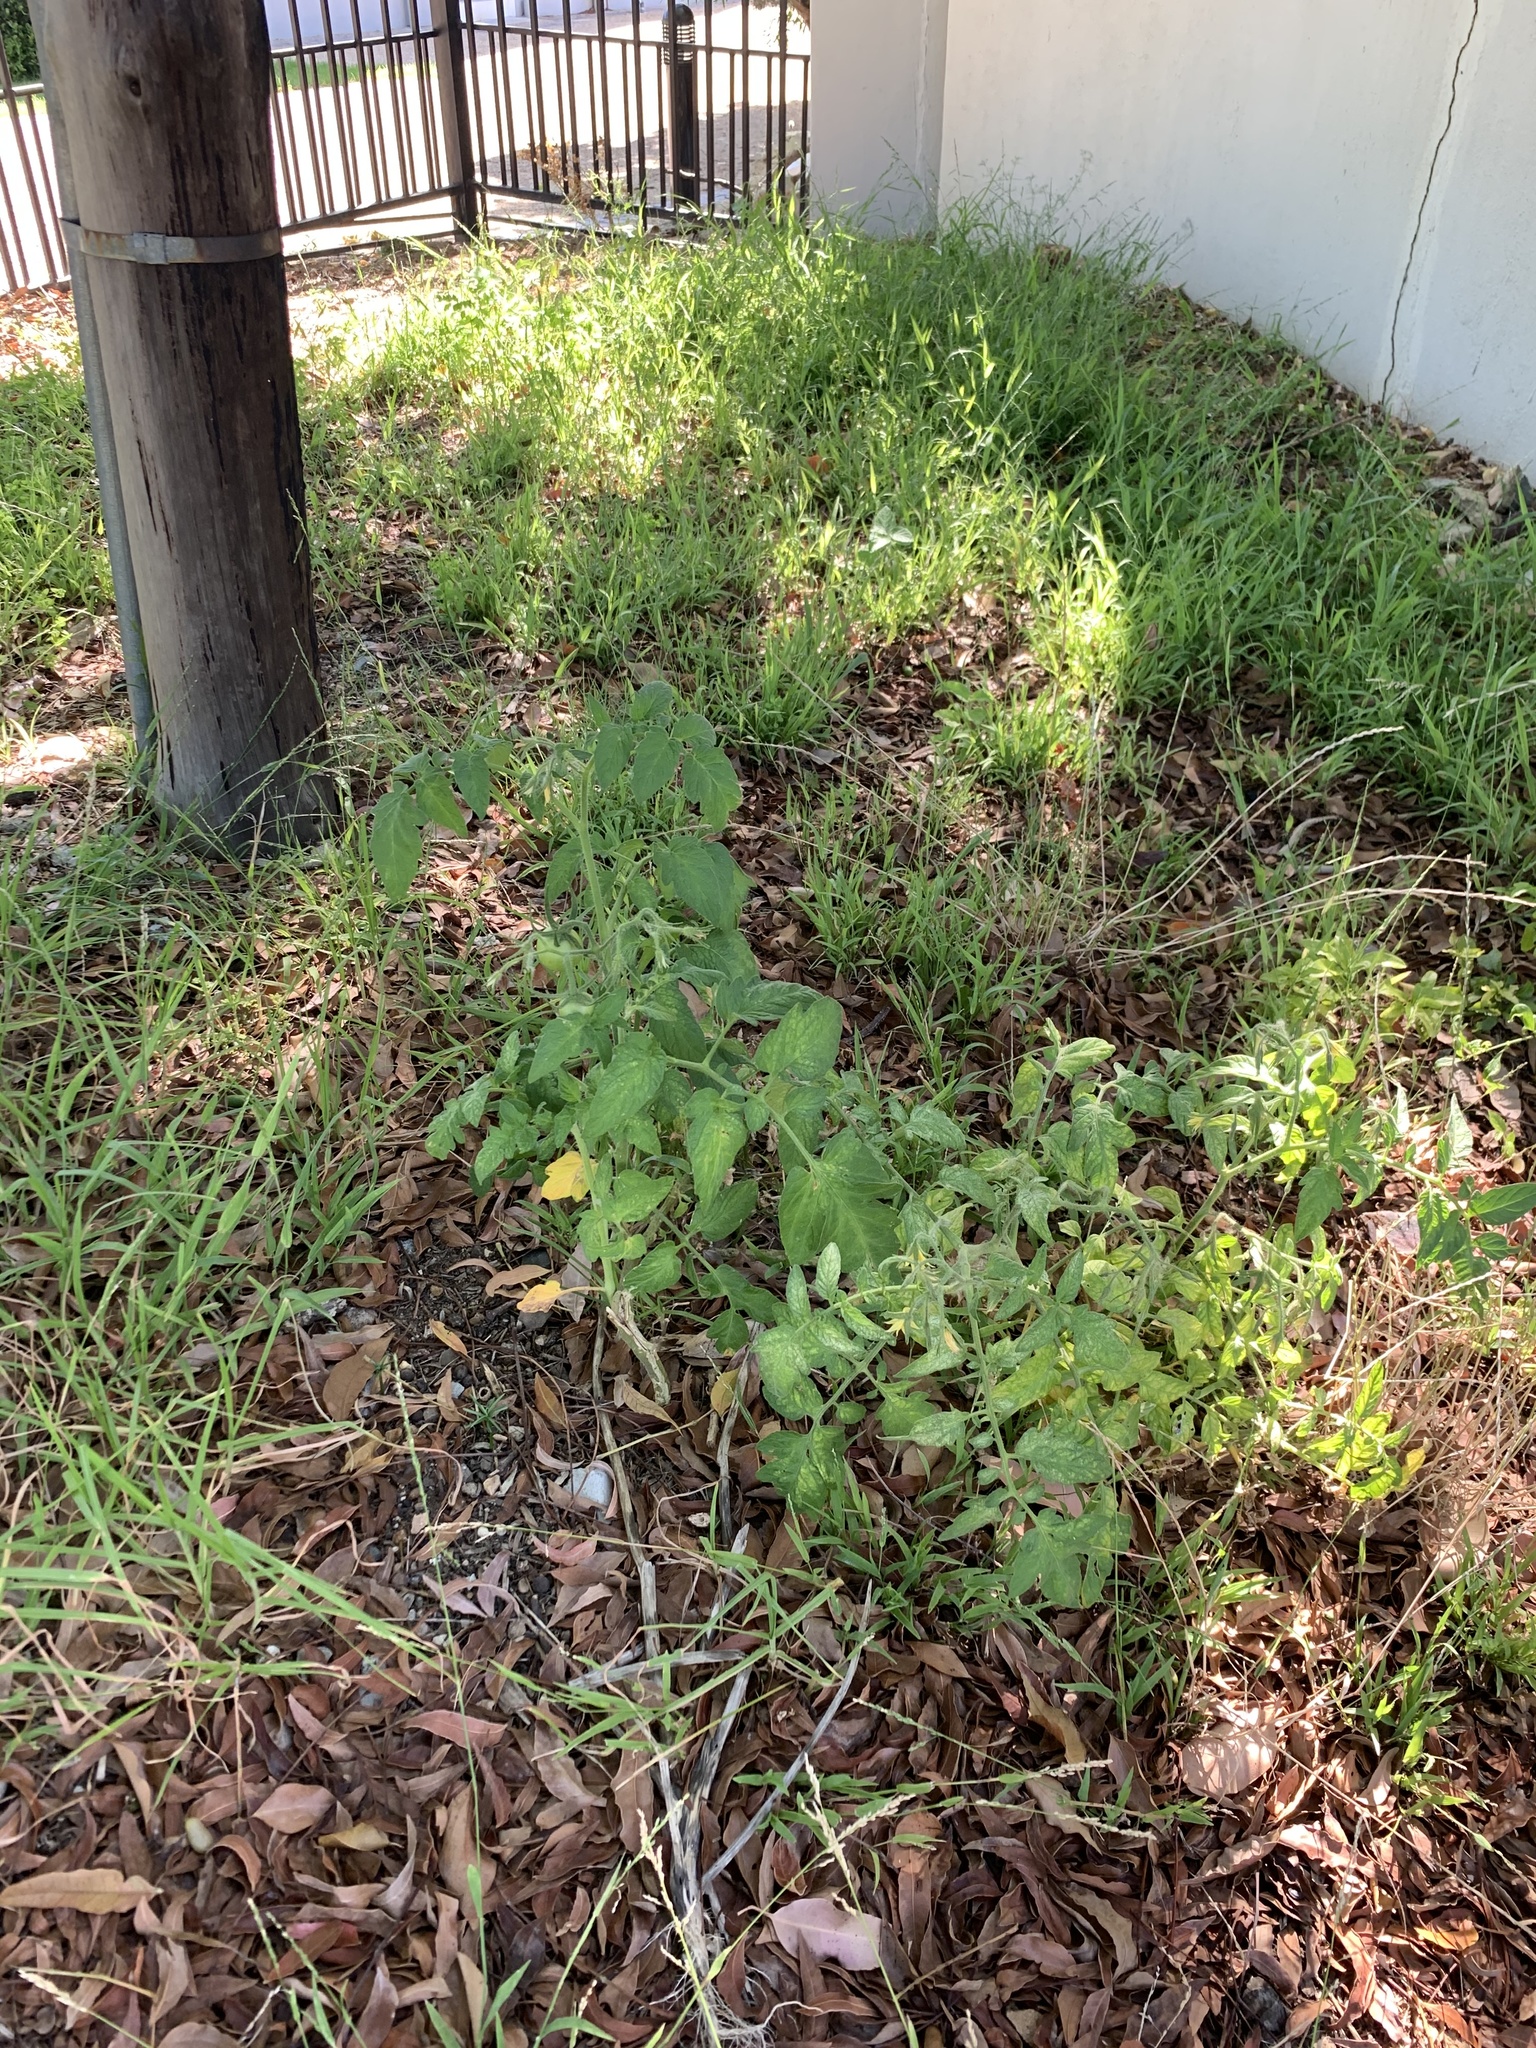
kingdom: Plantae
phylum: Tracheophyta
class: Magnoliopsida
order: Solanales
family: Solanaceae
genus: Solanum
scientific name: Solanum lycopersicum
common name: Garden tomato
